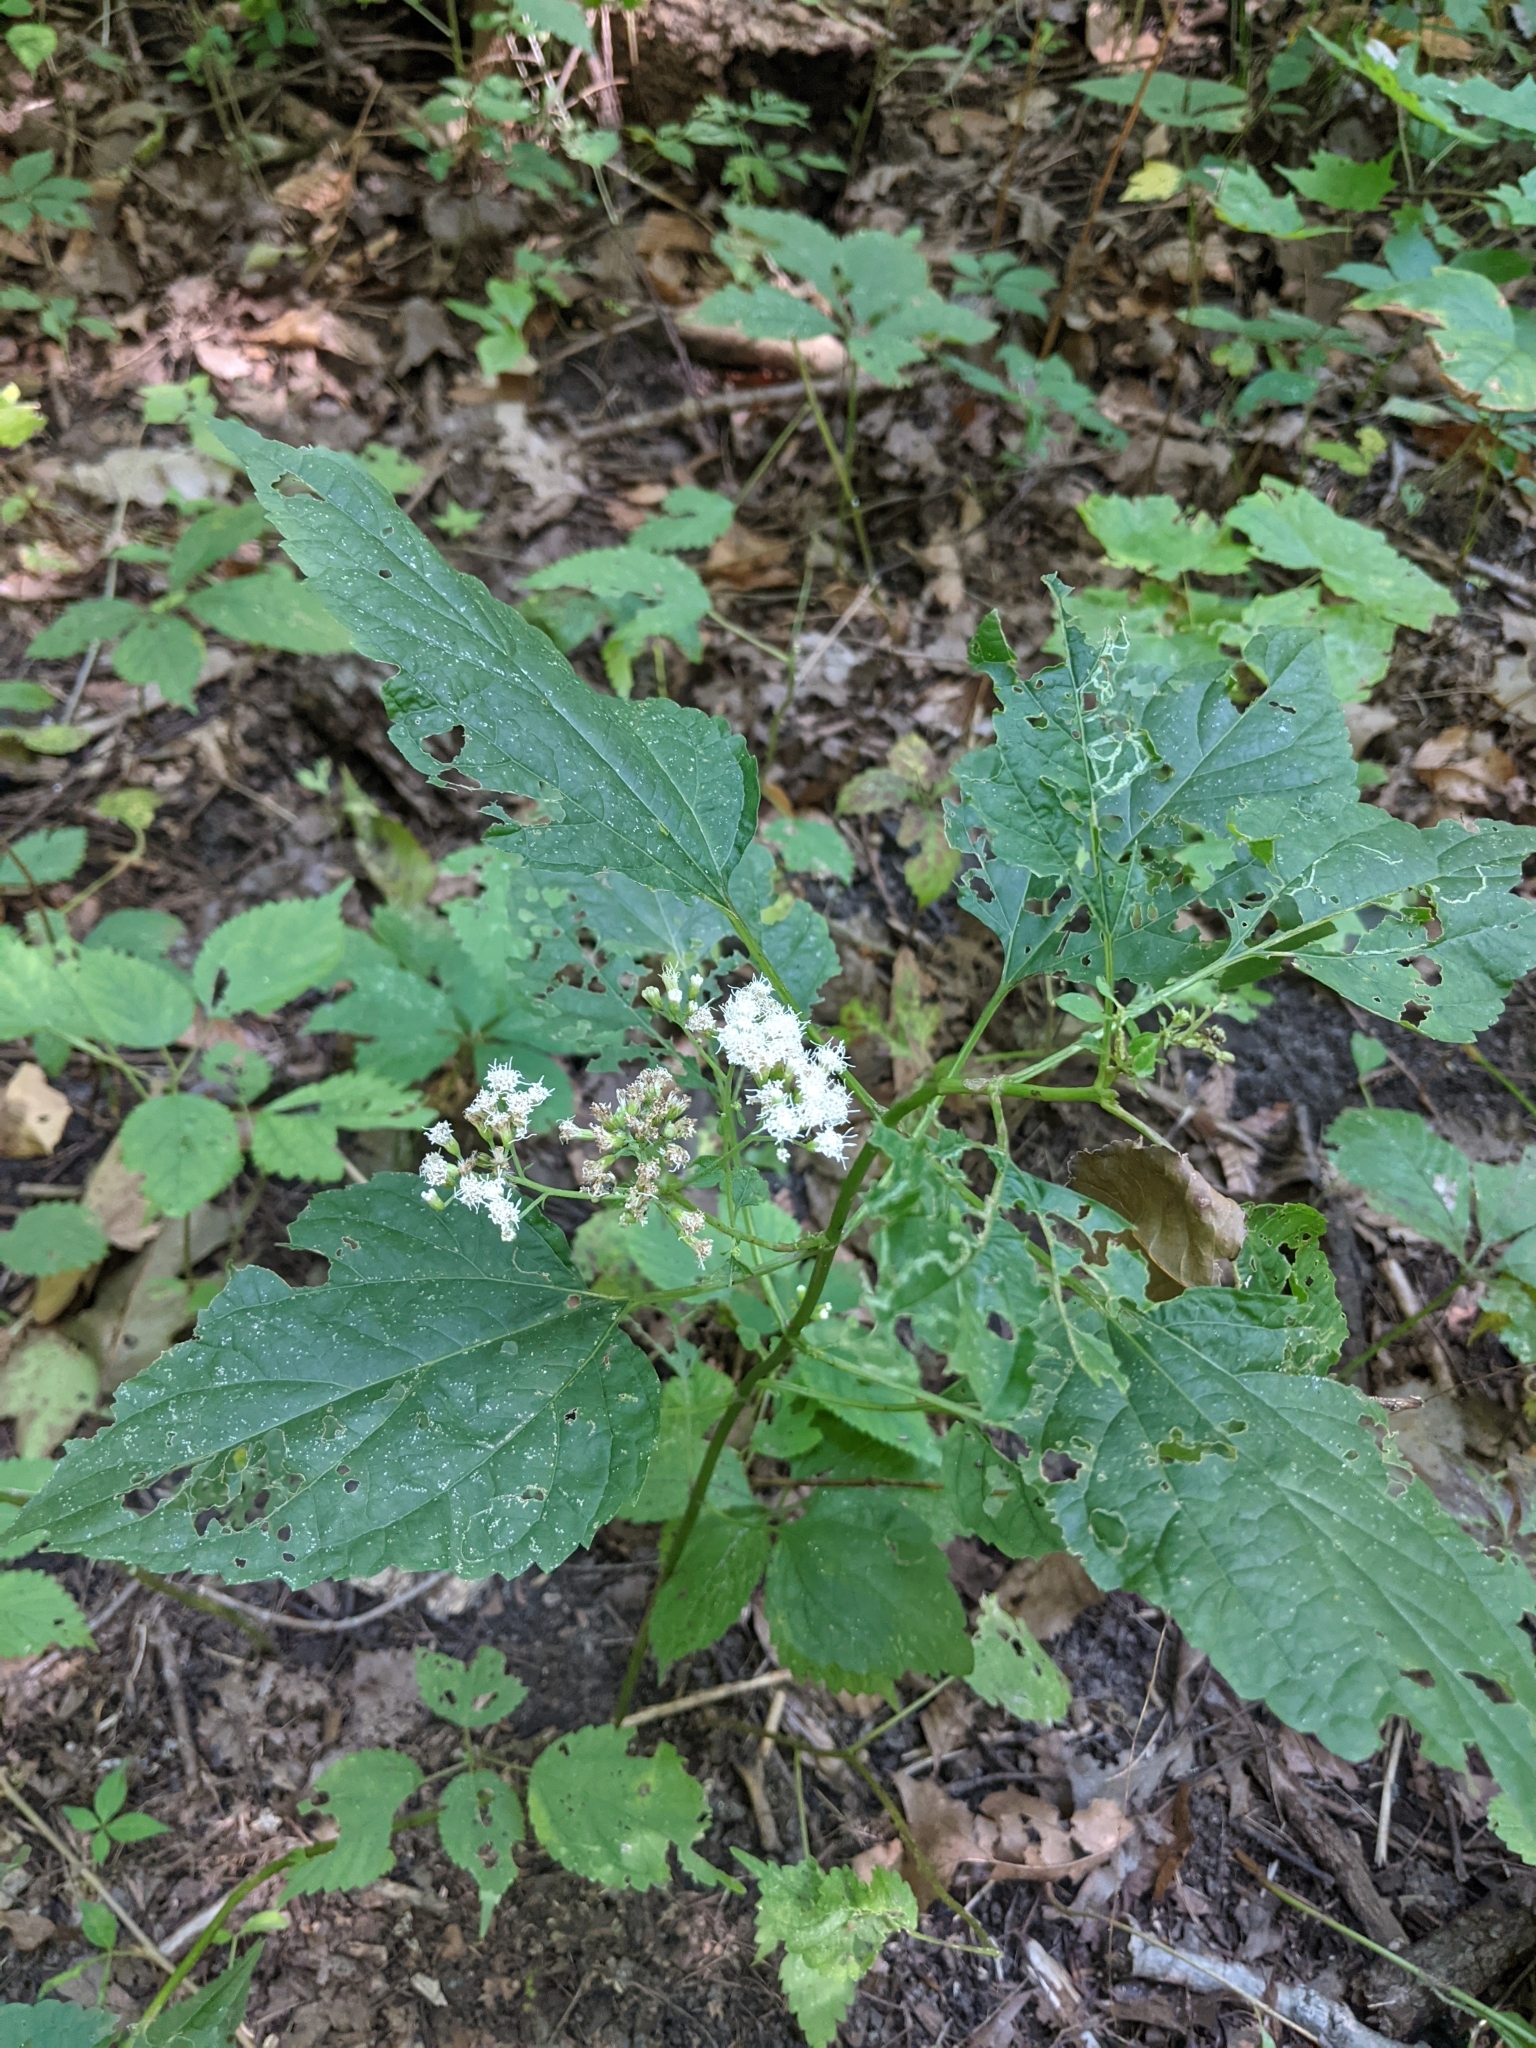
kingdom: Plantae
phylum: Tracheophyta
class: Magnoliopsida
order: Asterales
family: Asteraceae
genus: Ageratina
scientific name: Ageratina altissima
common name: White snakeroot
